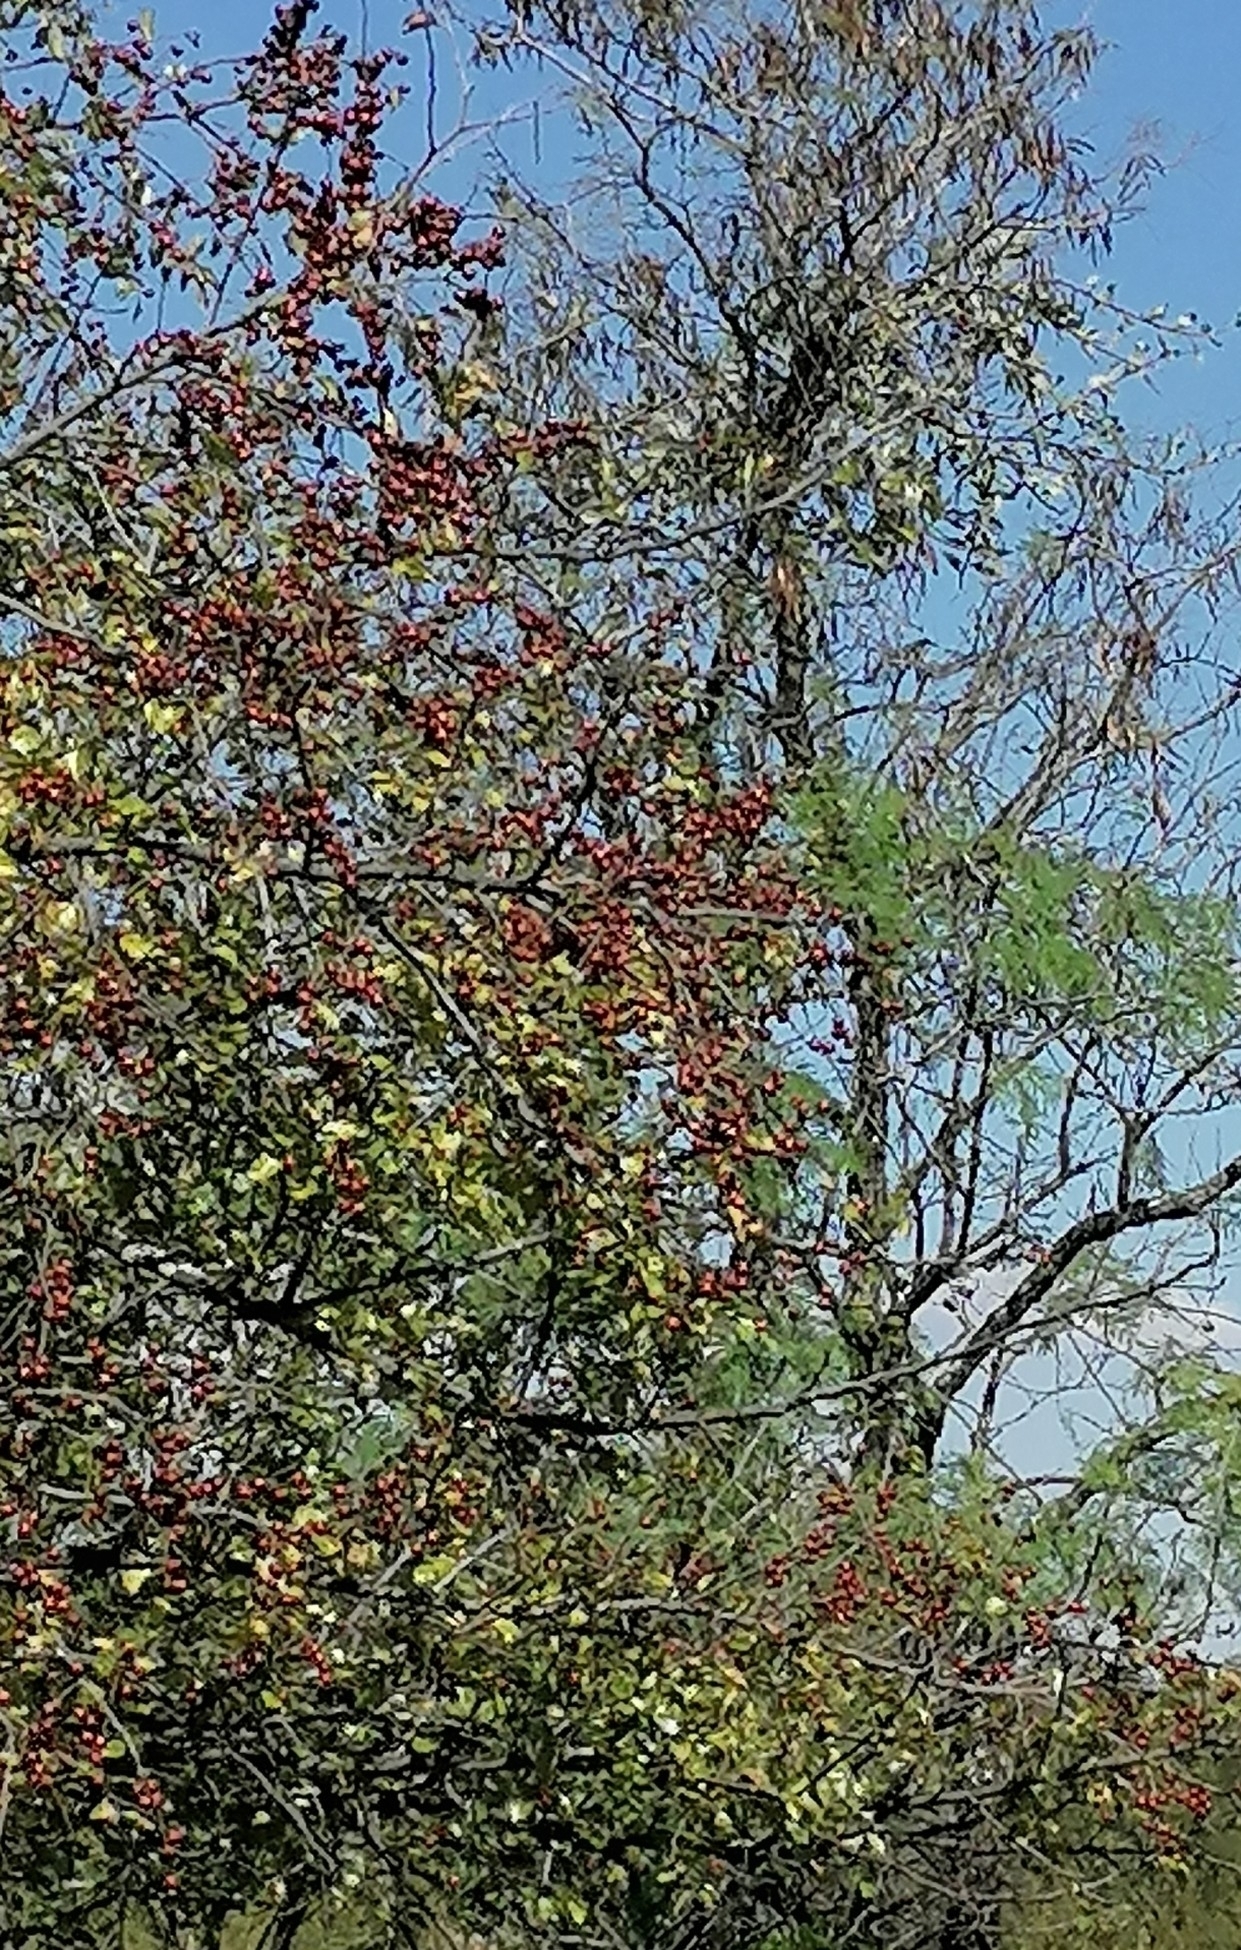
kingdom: Plantae
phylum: Tracheophyta
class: Magnoliopsida
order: Rosales
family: Rhamnaceae
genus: Ziziphus
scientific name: Ziziphus mucronata
